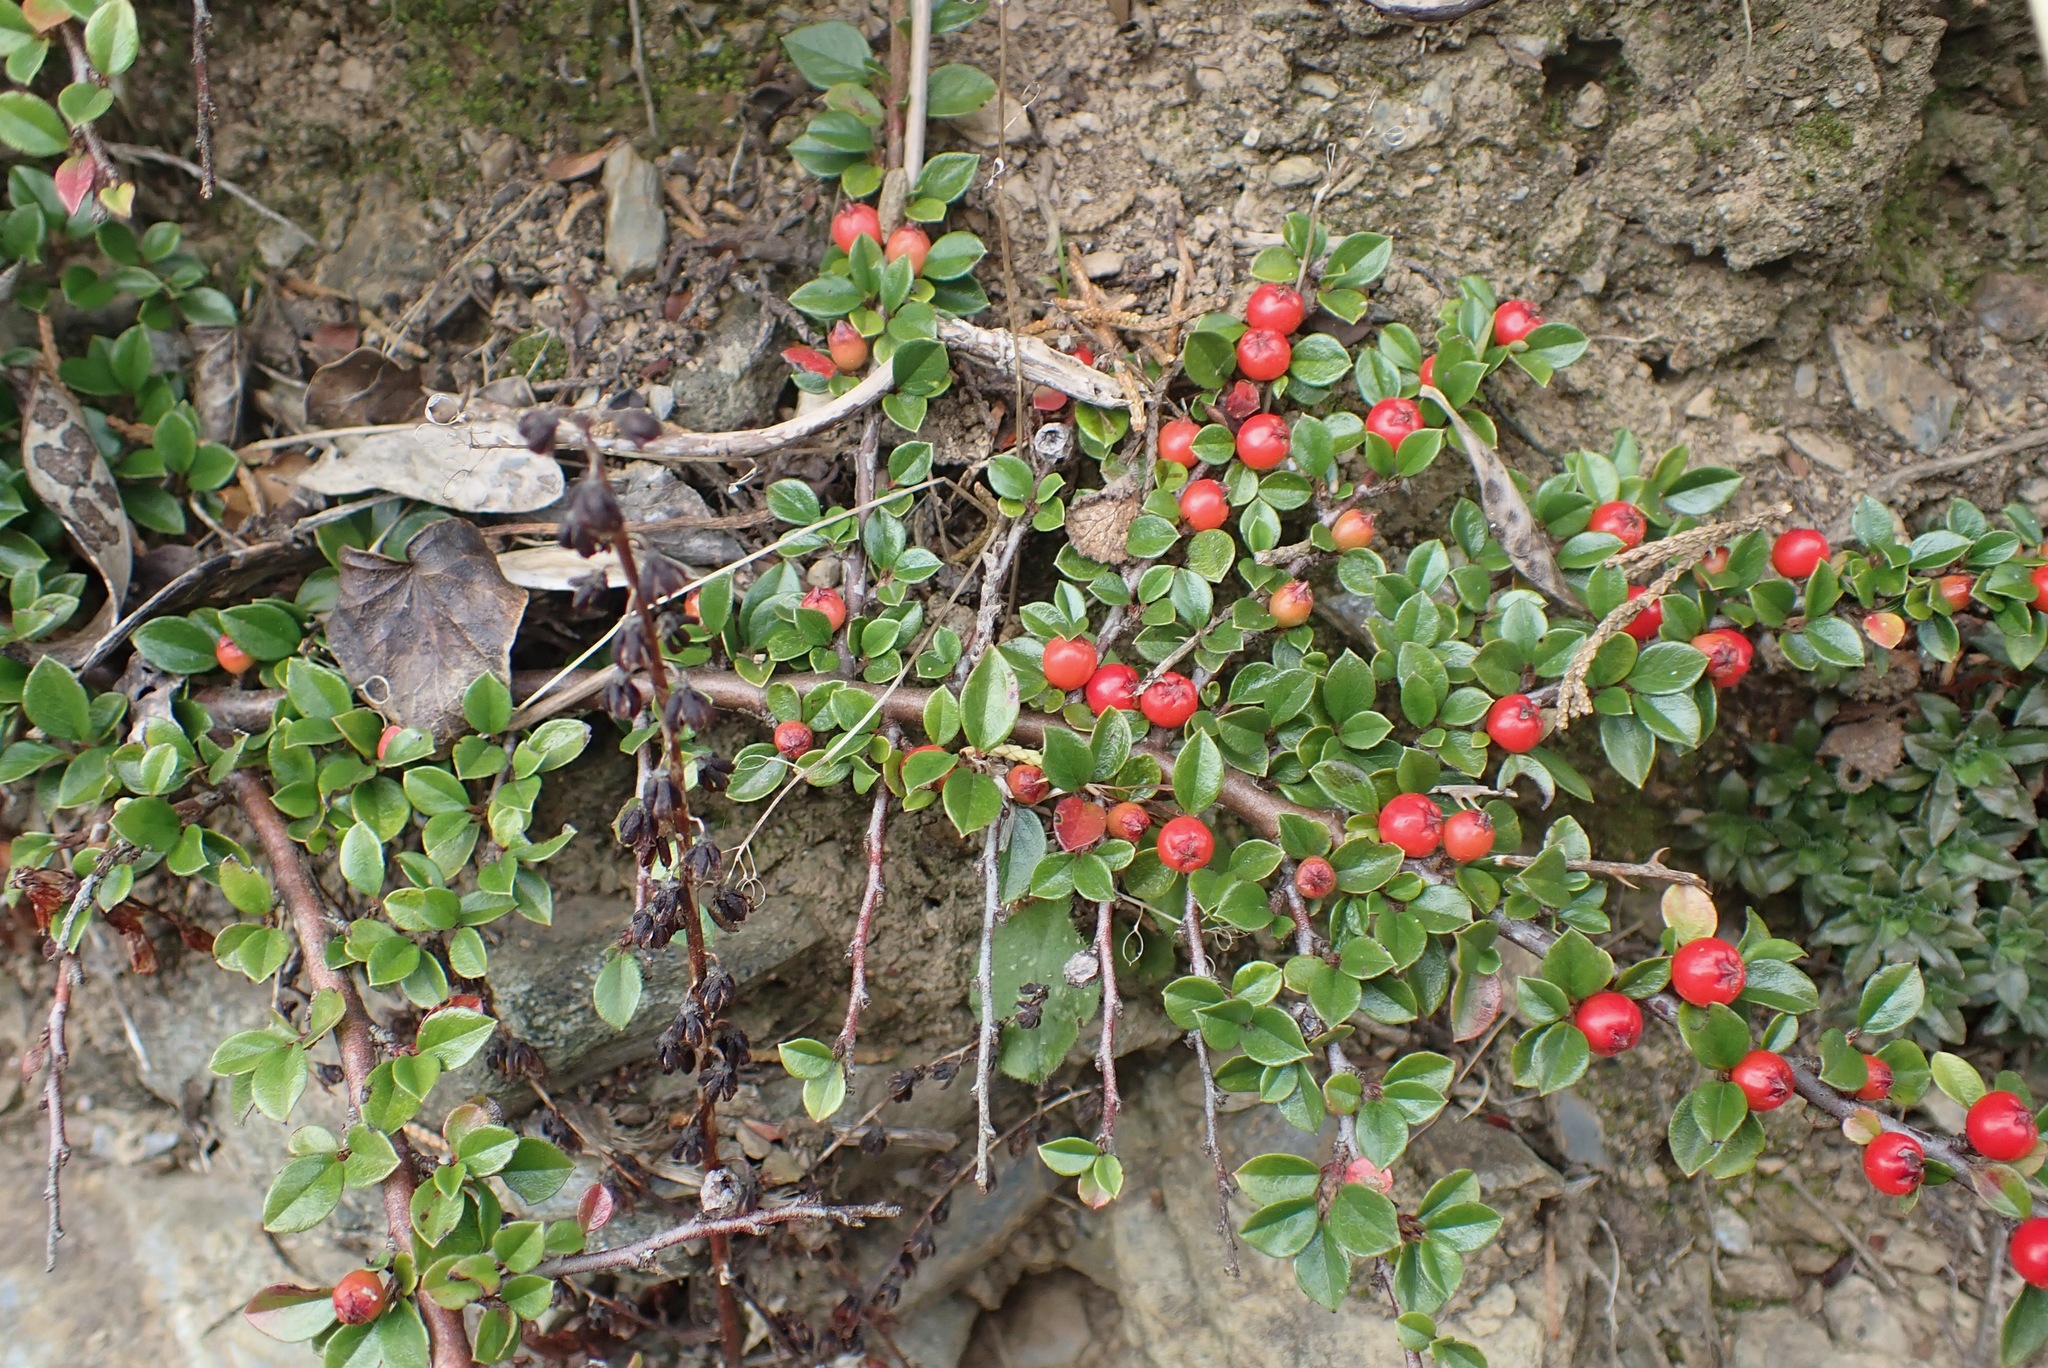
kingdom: Plantae
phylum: Tracheophyta
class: Magnoliopsida
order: Rosales
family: Rosaceae
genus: Cotoneaster
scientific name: Cotoneaster horizontalis
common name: Wall cotoneaster
